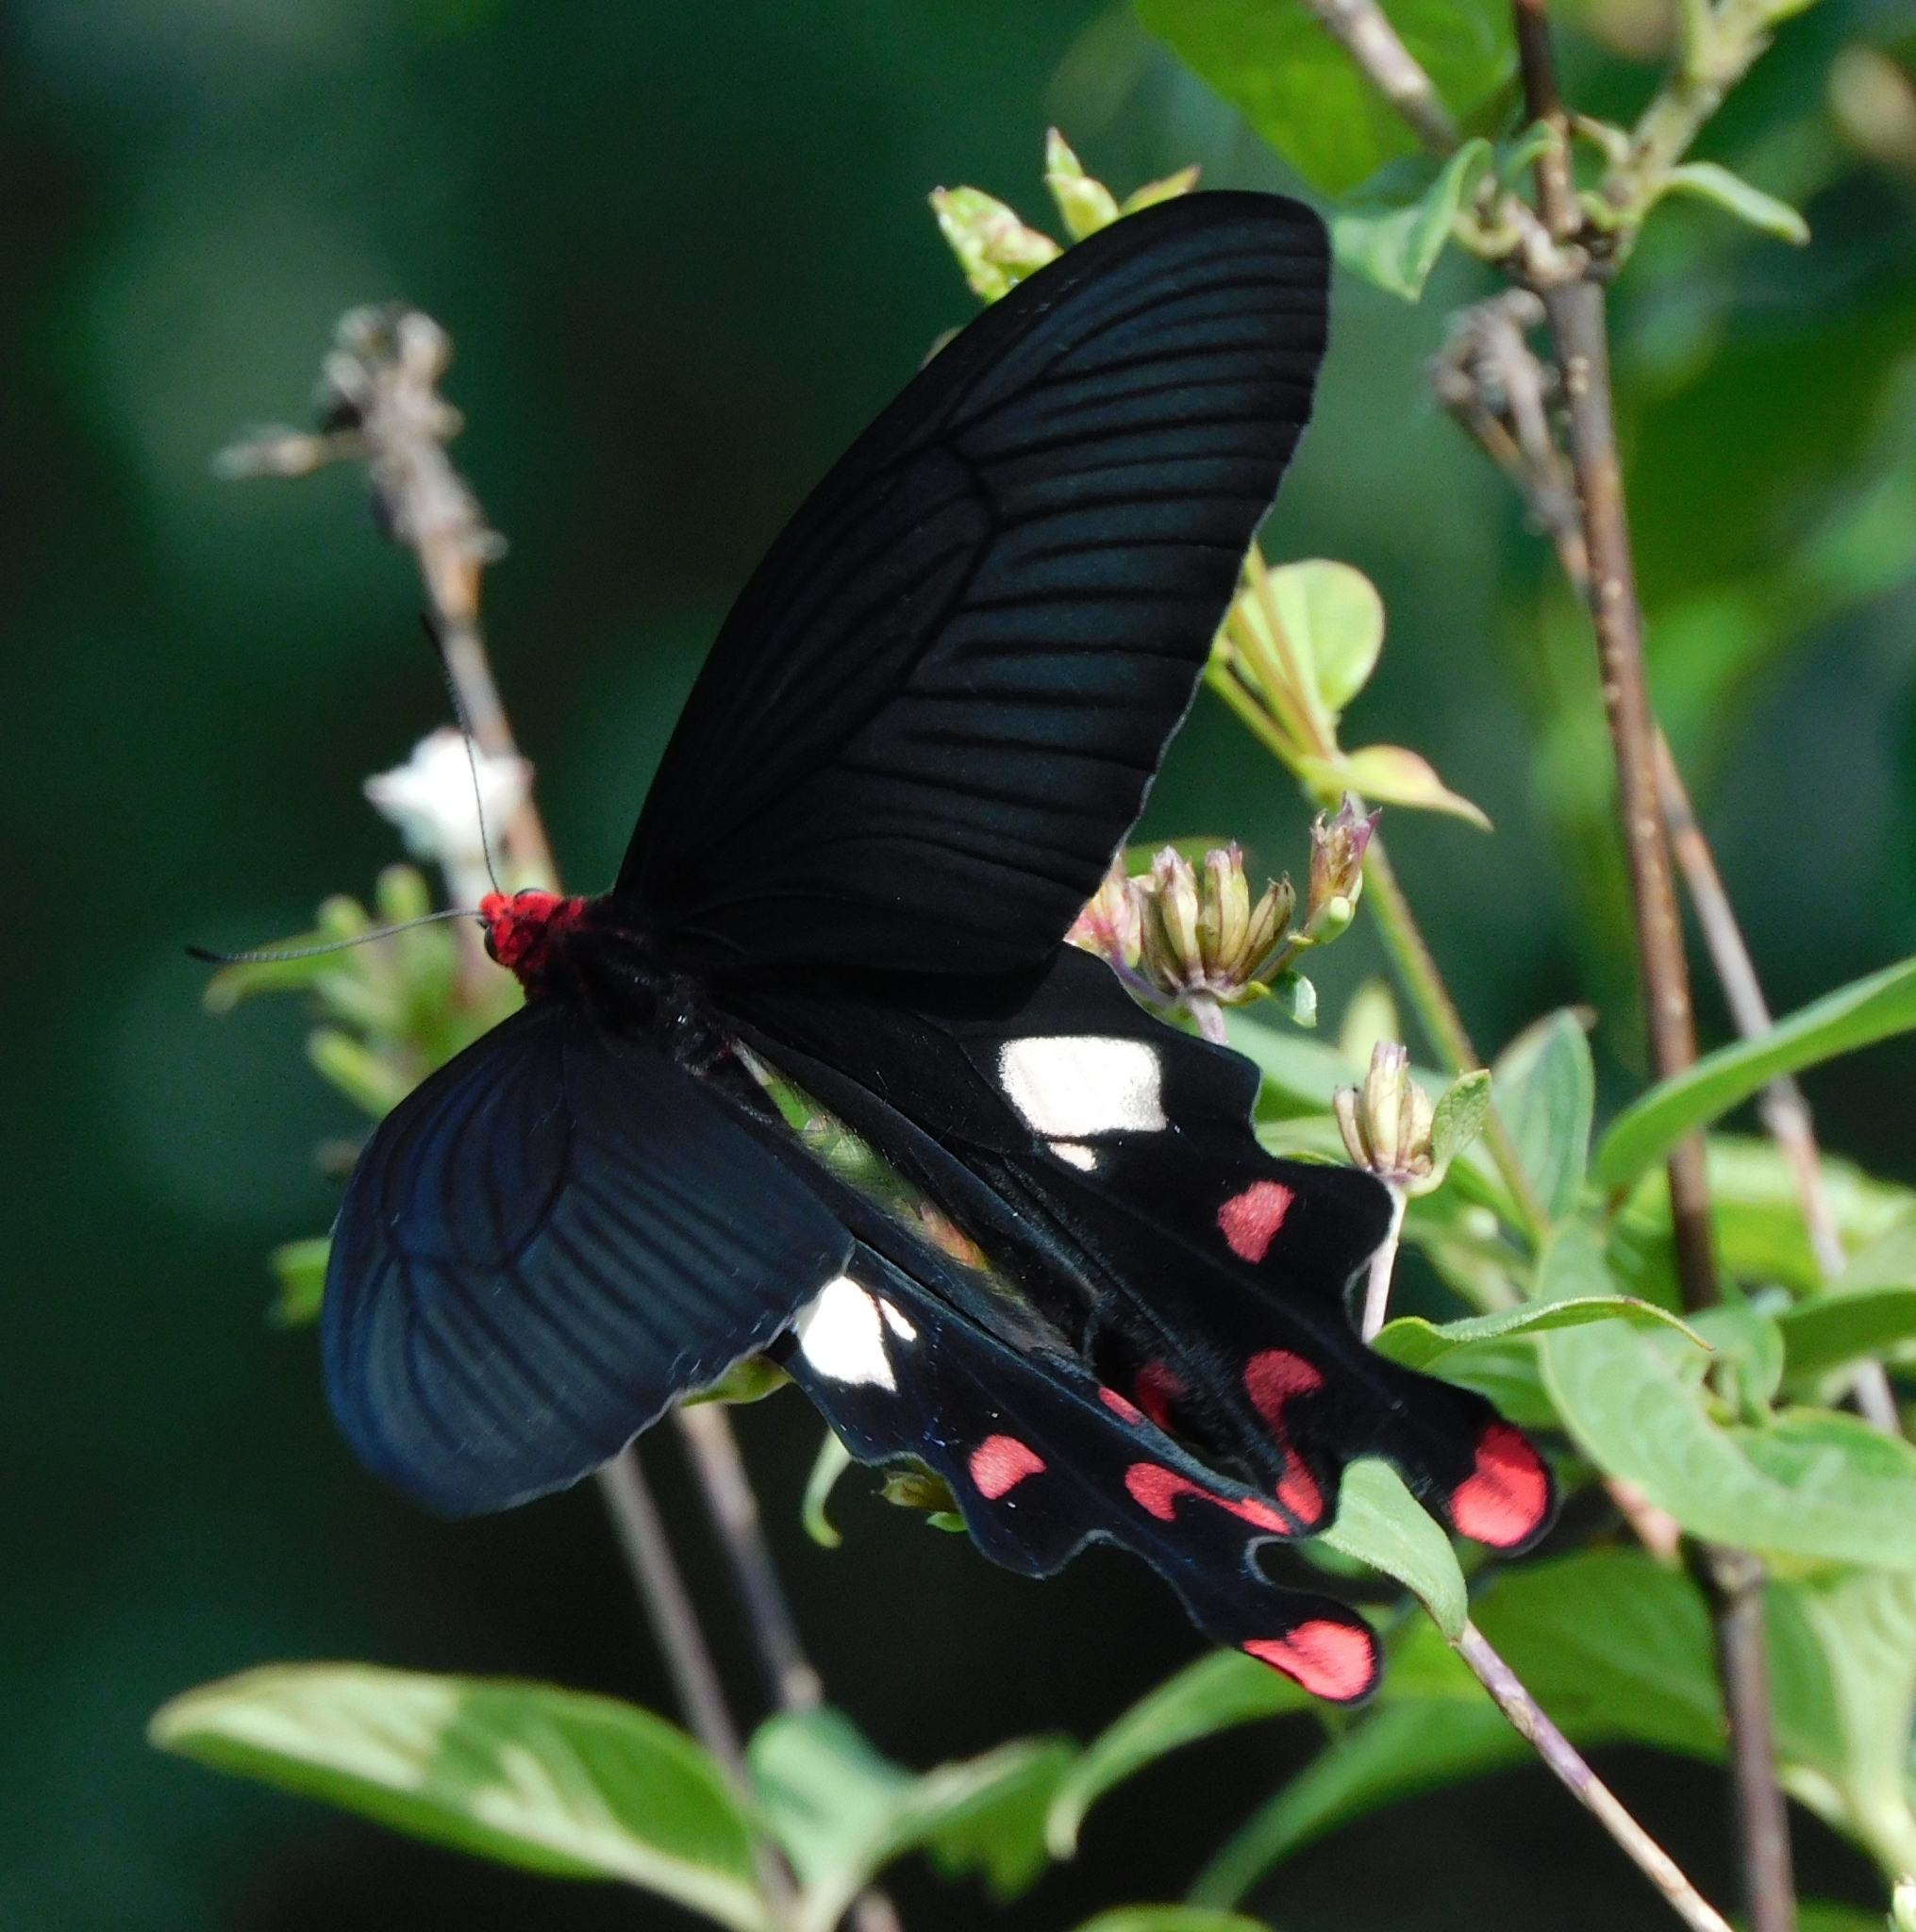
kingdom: Animalia
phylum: Arthropoda
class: Insecta
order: Lepidoptera
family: Papilionidae
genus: Byasa
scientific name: Byasa polyeuctes
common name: Common windmill
